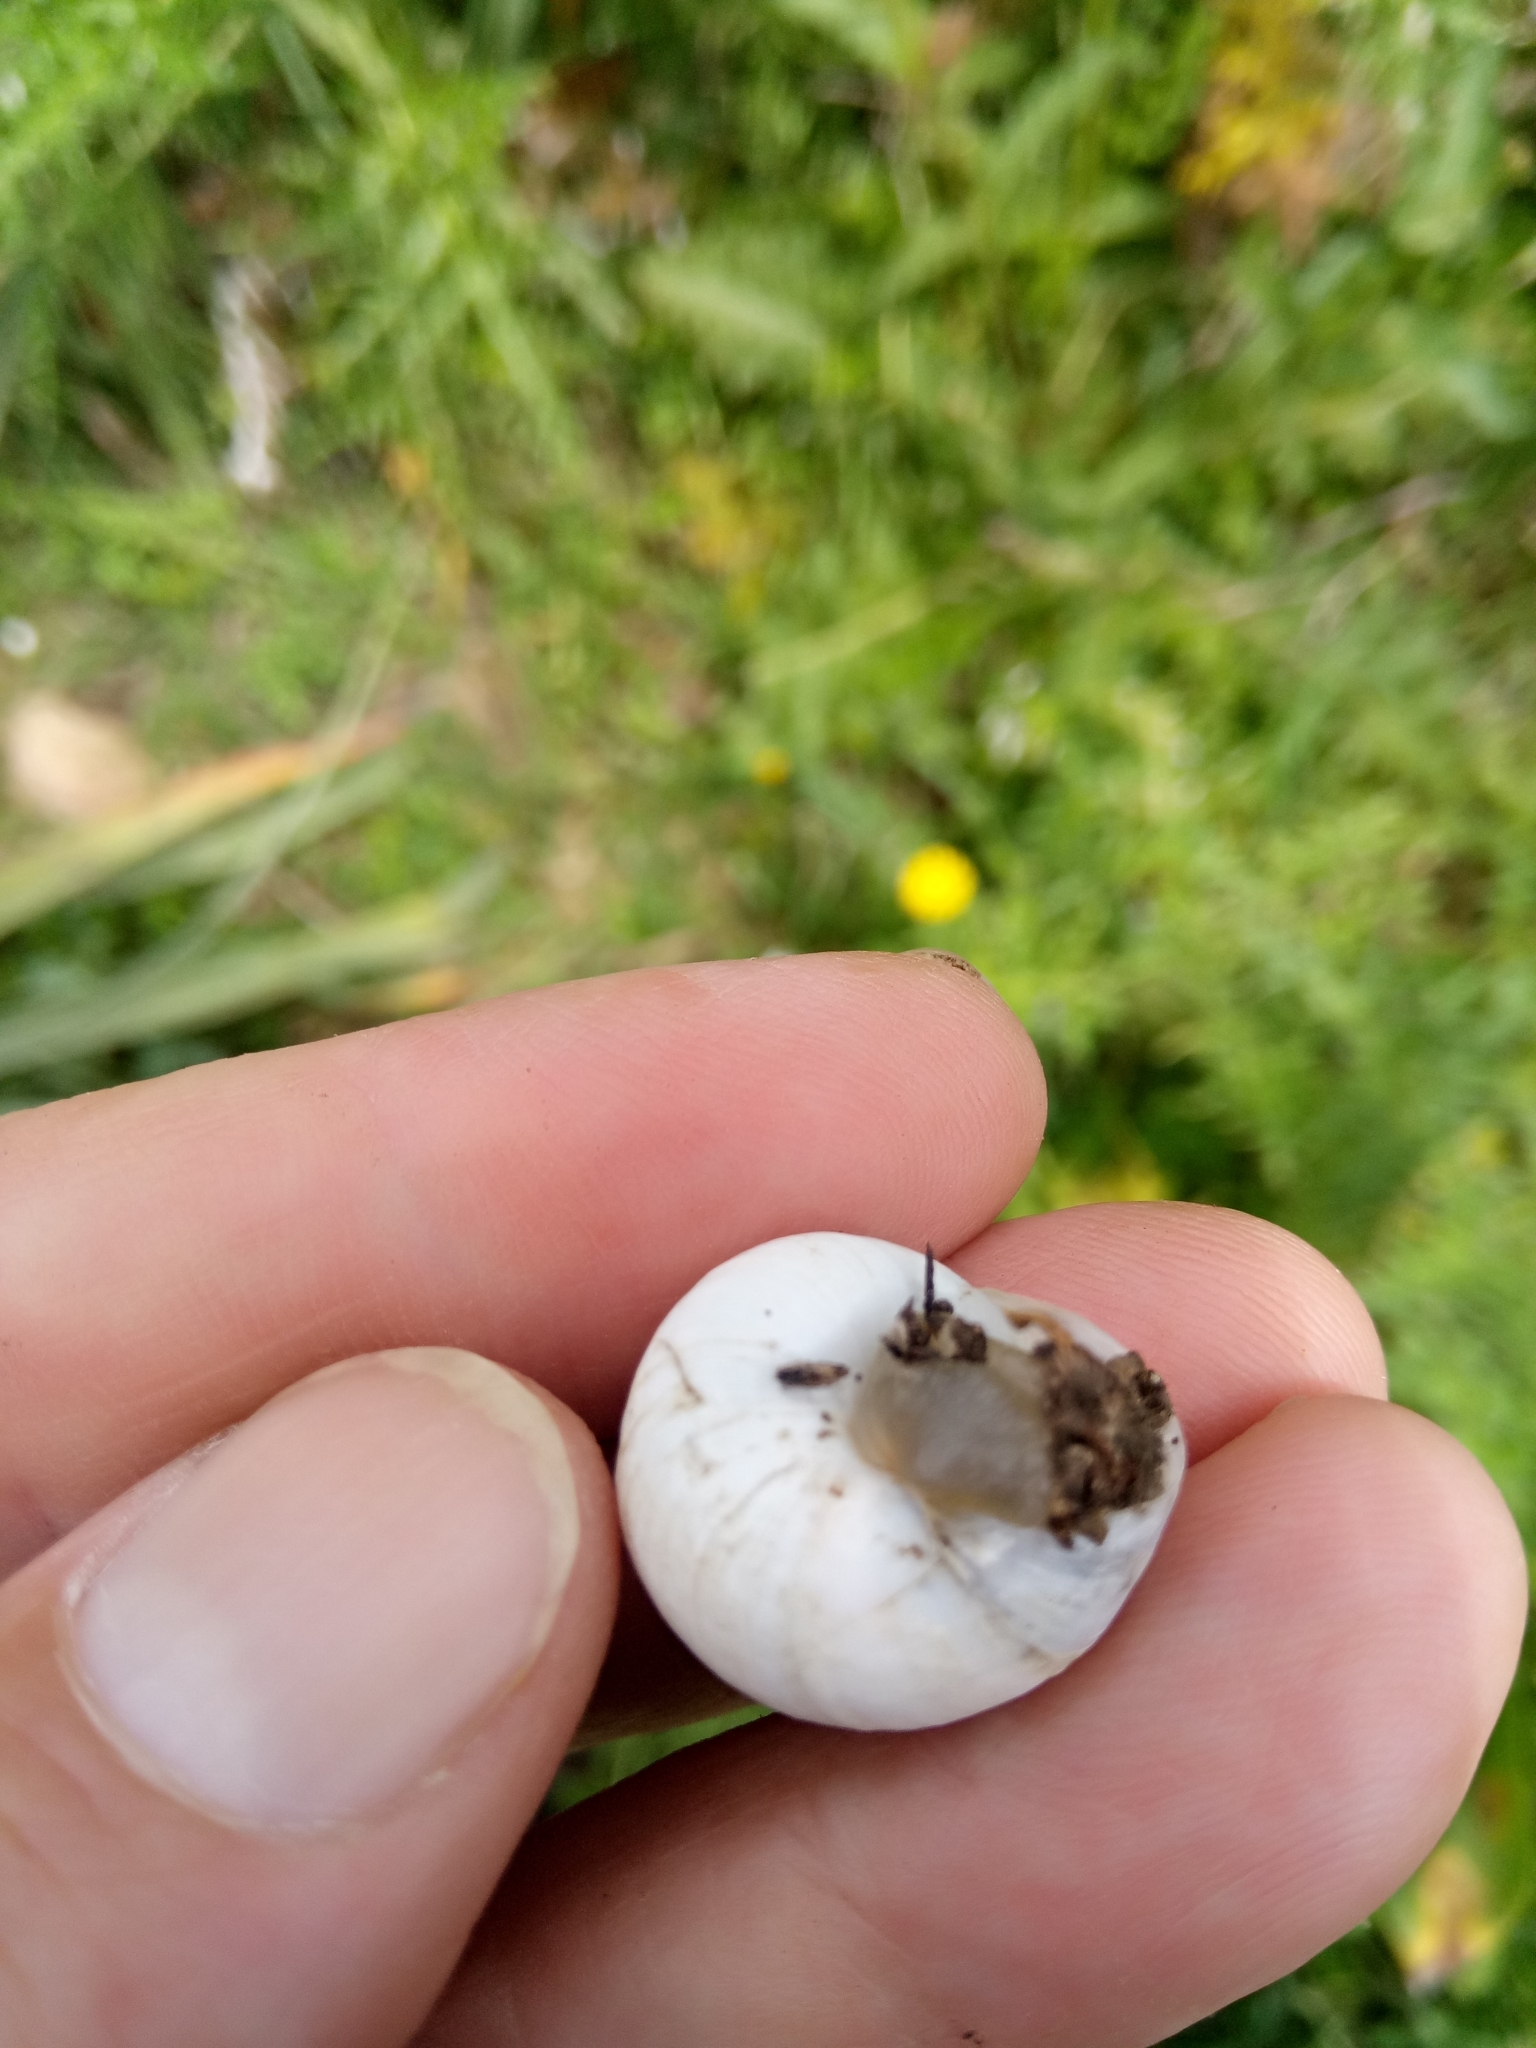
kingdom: Animalia
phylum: Mollusca
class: Gastropoda
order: Stylommatophora
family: Sphincterochilidae
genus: Sphincterochila
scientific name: Sphincterochila candidissima
